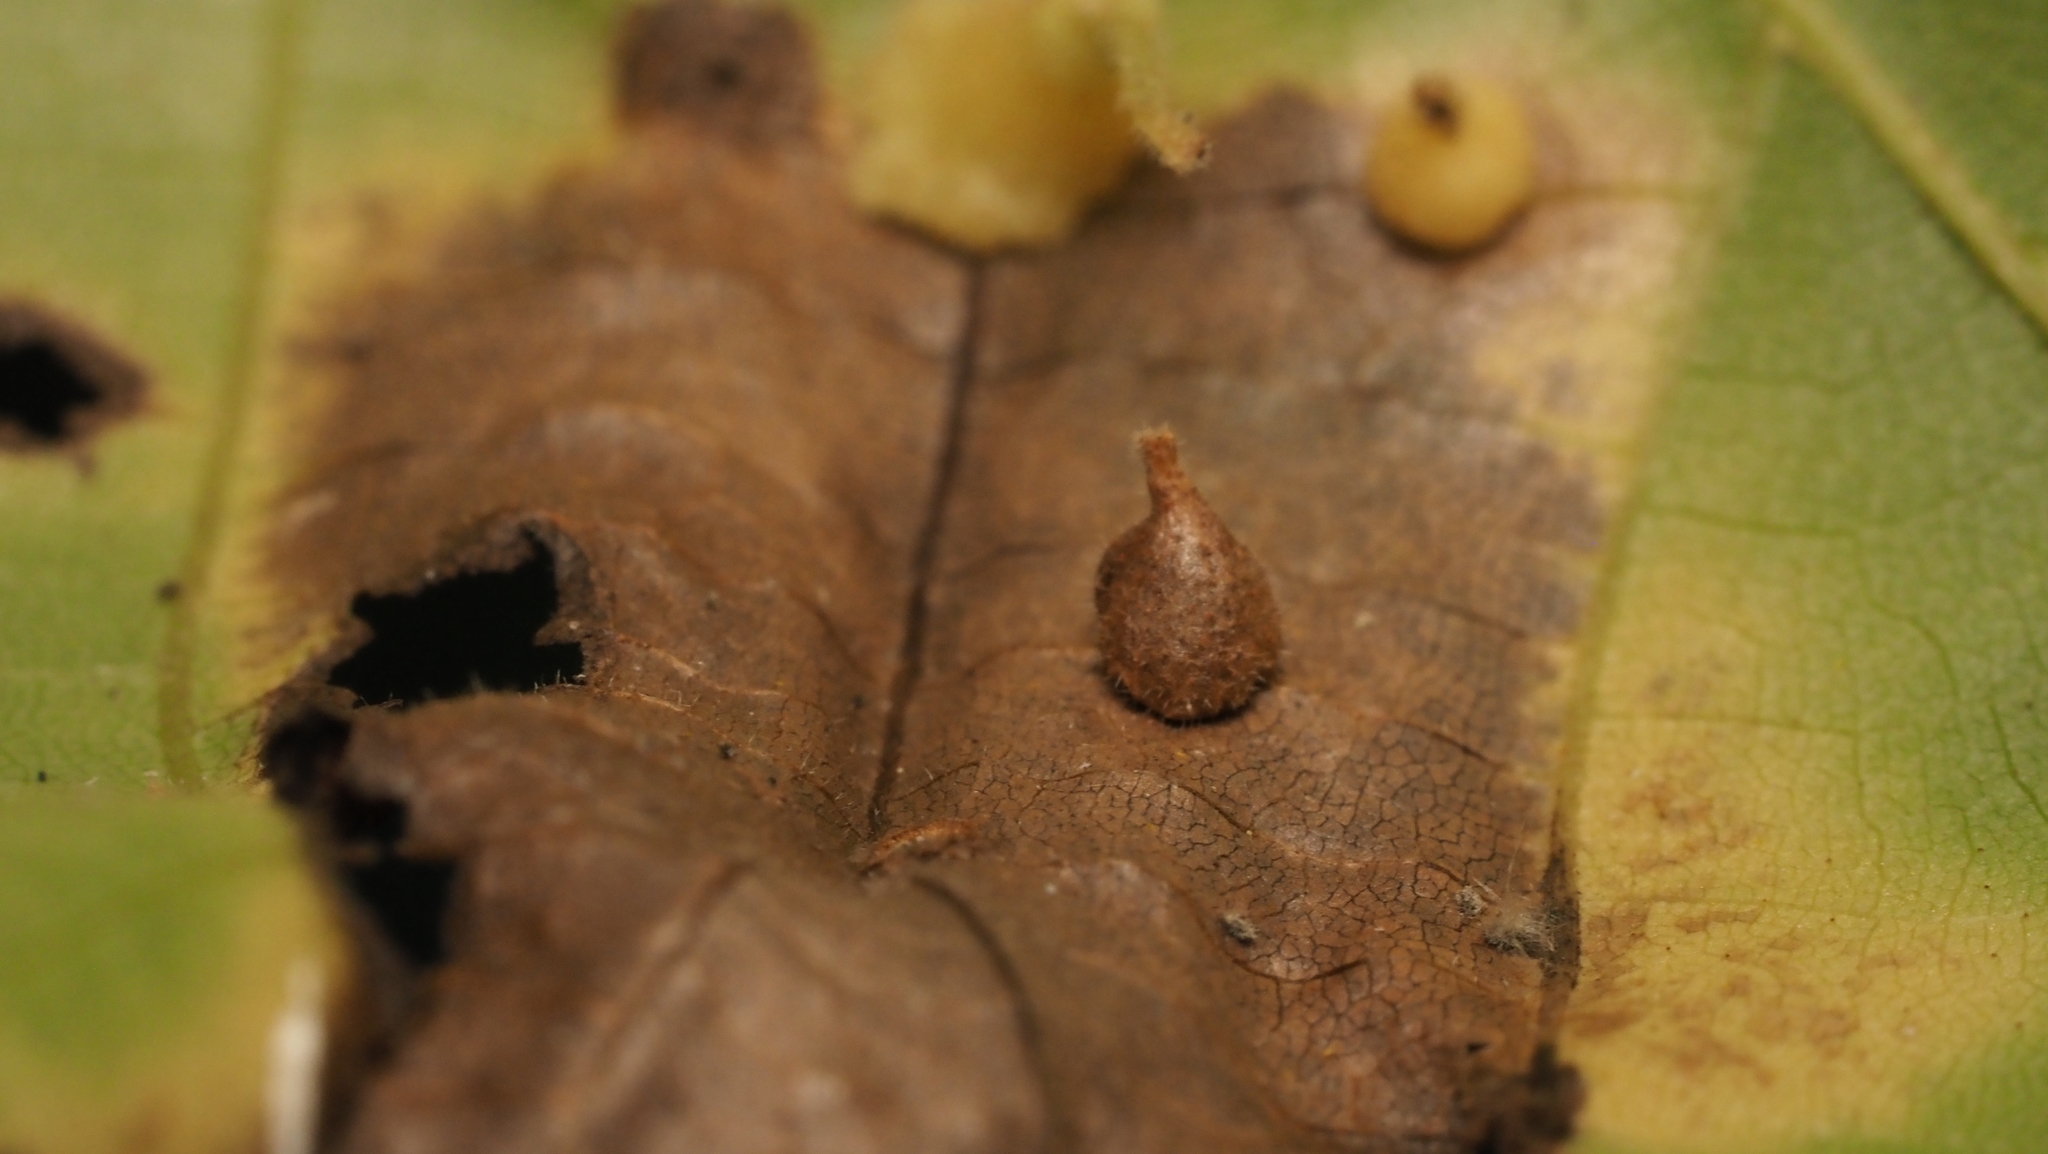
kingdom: Animalia
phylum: Arthropoda
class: Insecta
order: Diptera
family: Cecidomyiidae
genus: Caryomyia
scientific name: Caryomyia inclinata
